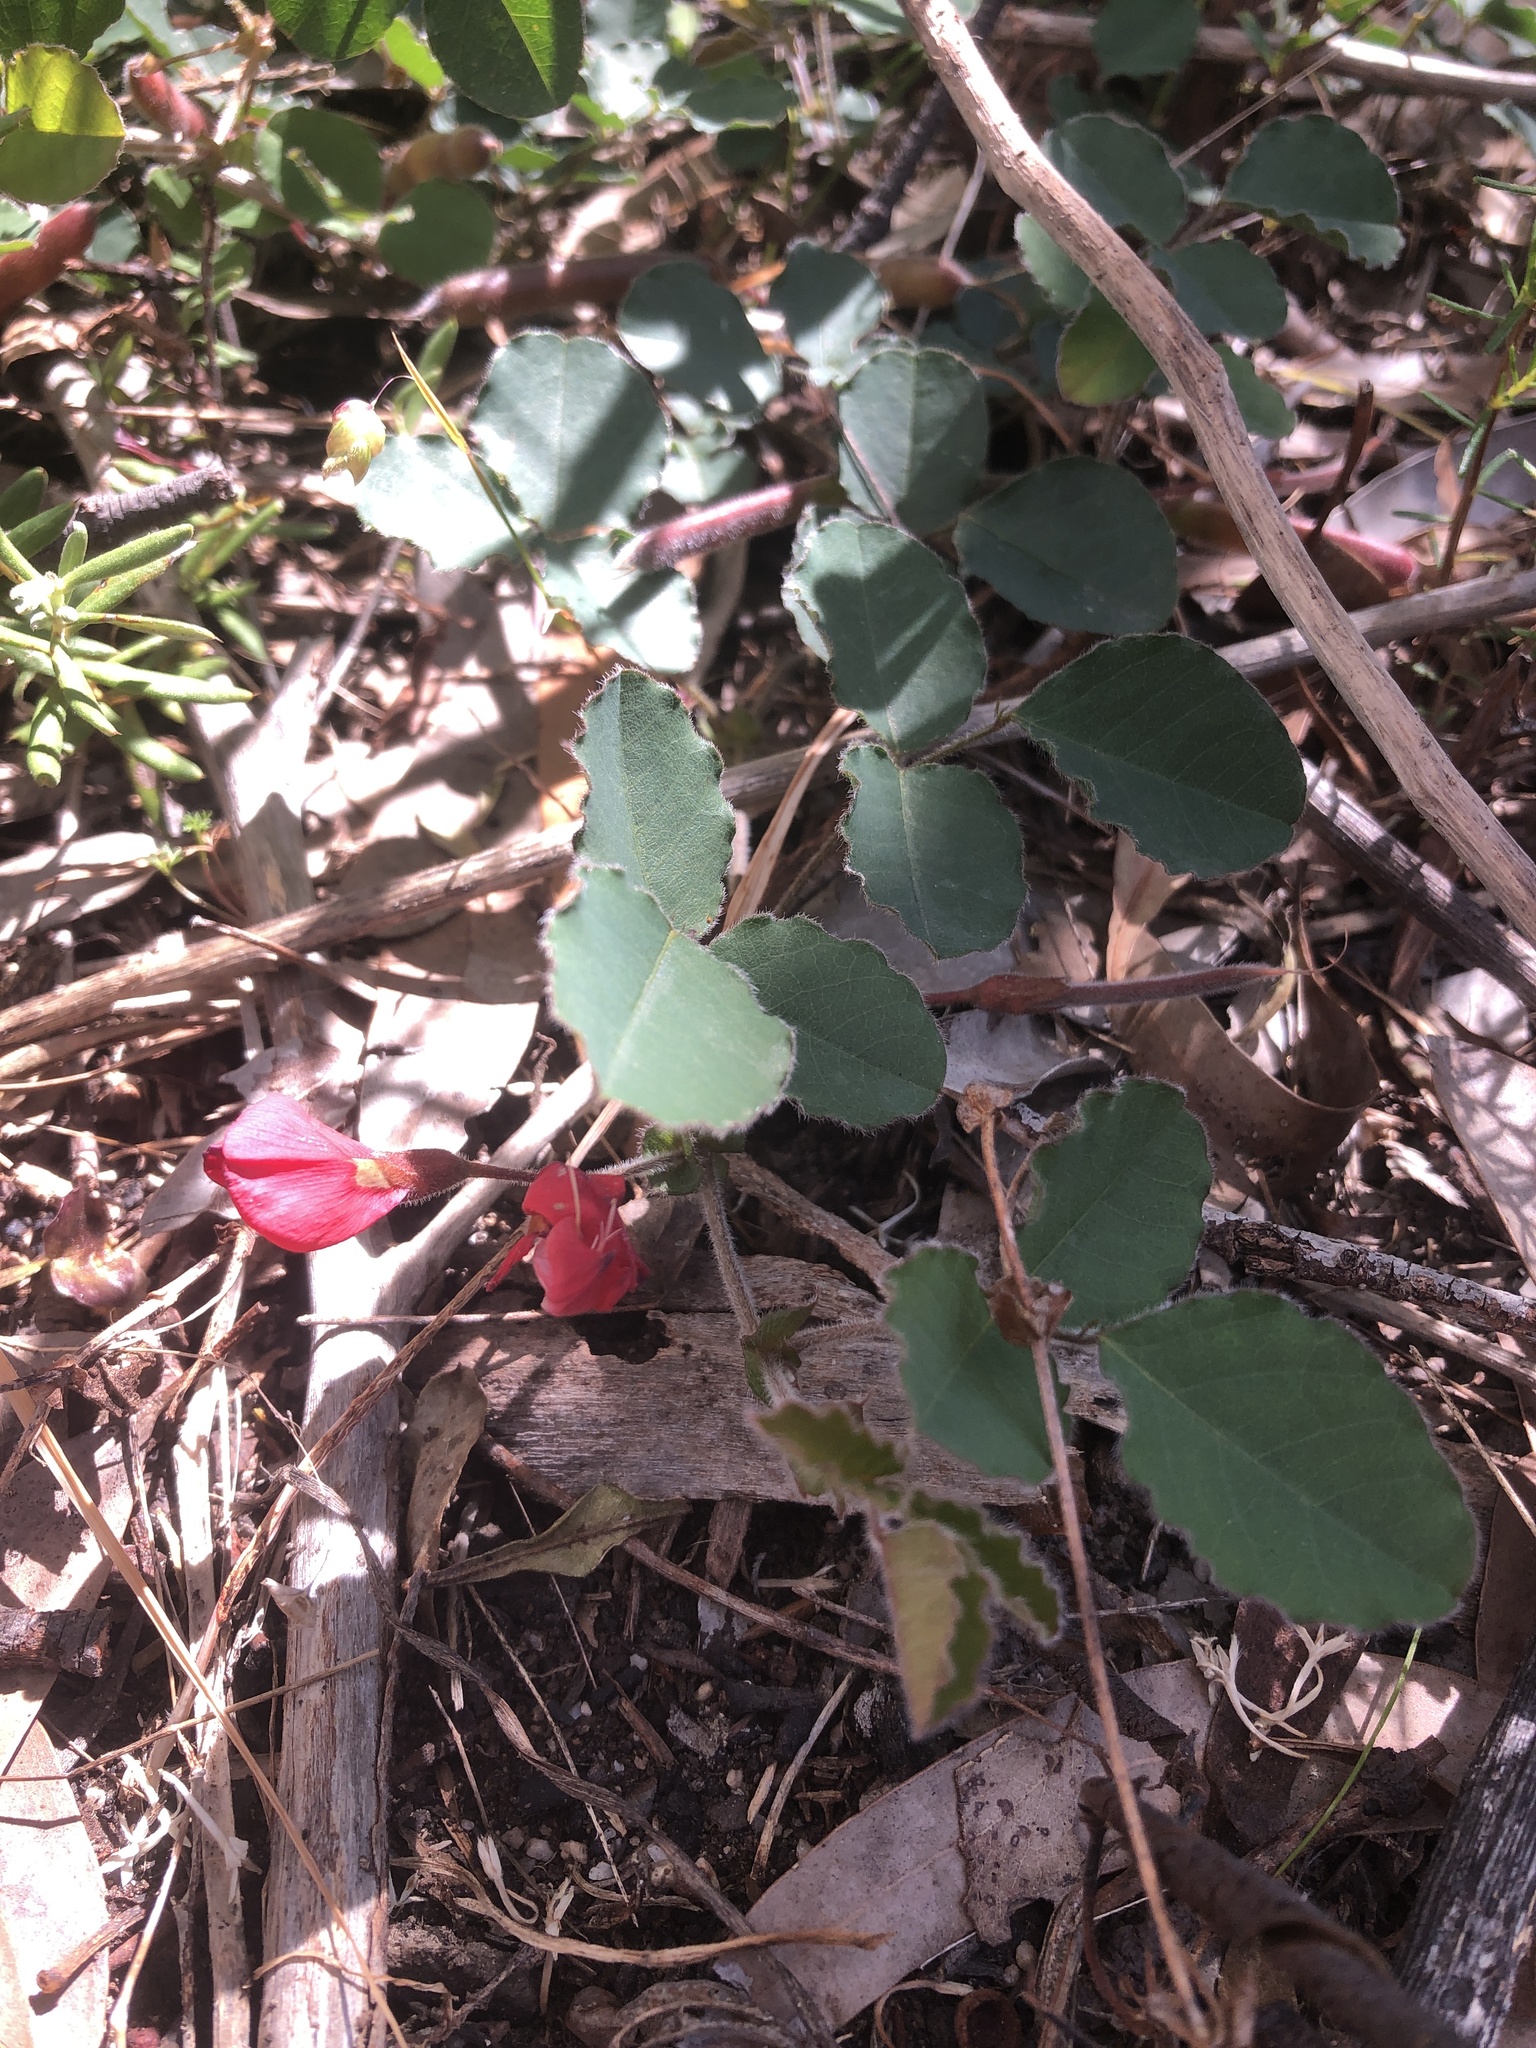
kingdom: Plantae
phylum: Tracheophyta
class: Magnoliopsida
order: Fabales
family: Fabaceae
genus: Kennedia
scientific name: Kennedia prostrata
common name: Running-postman
